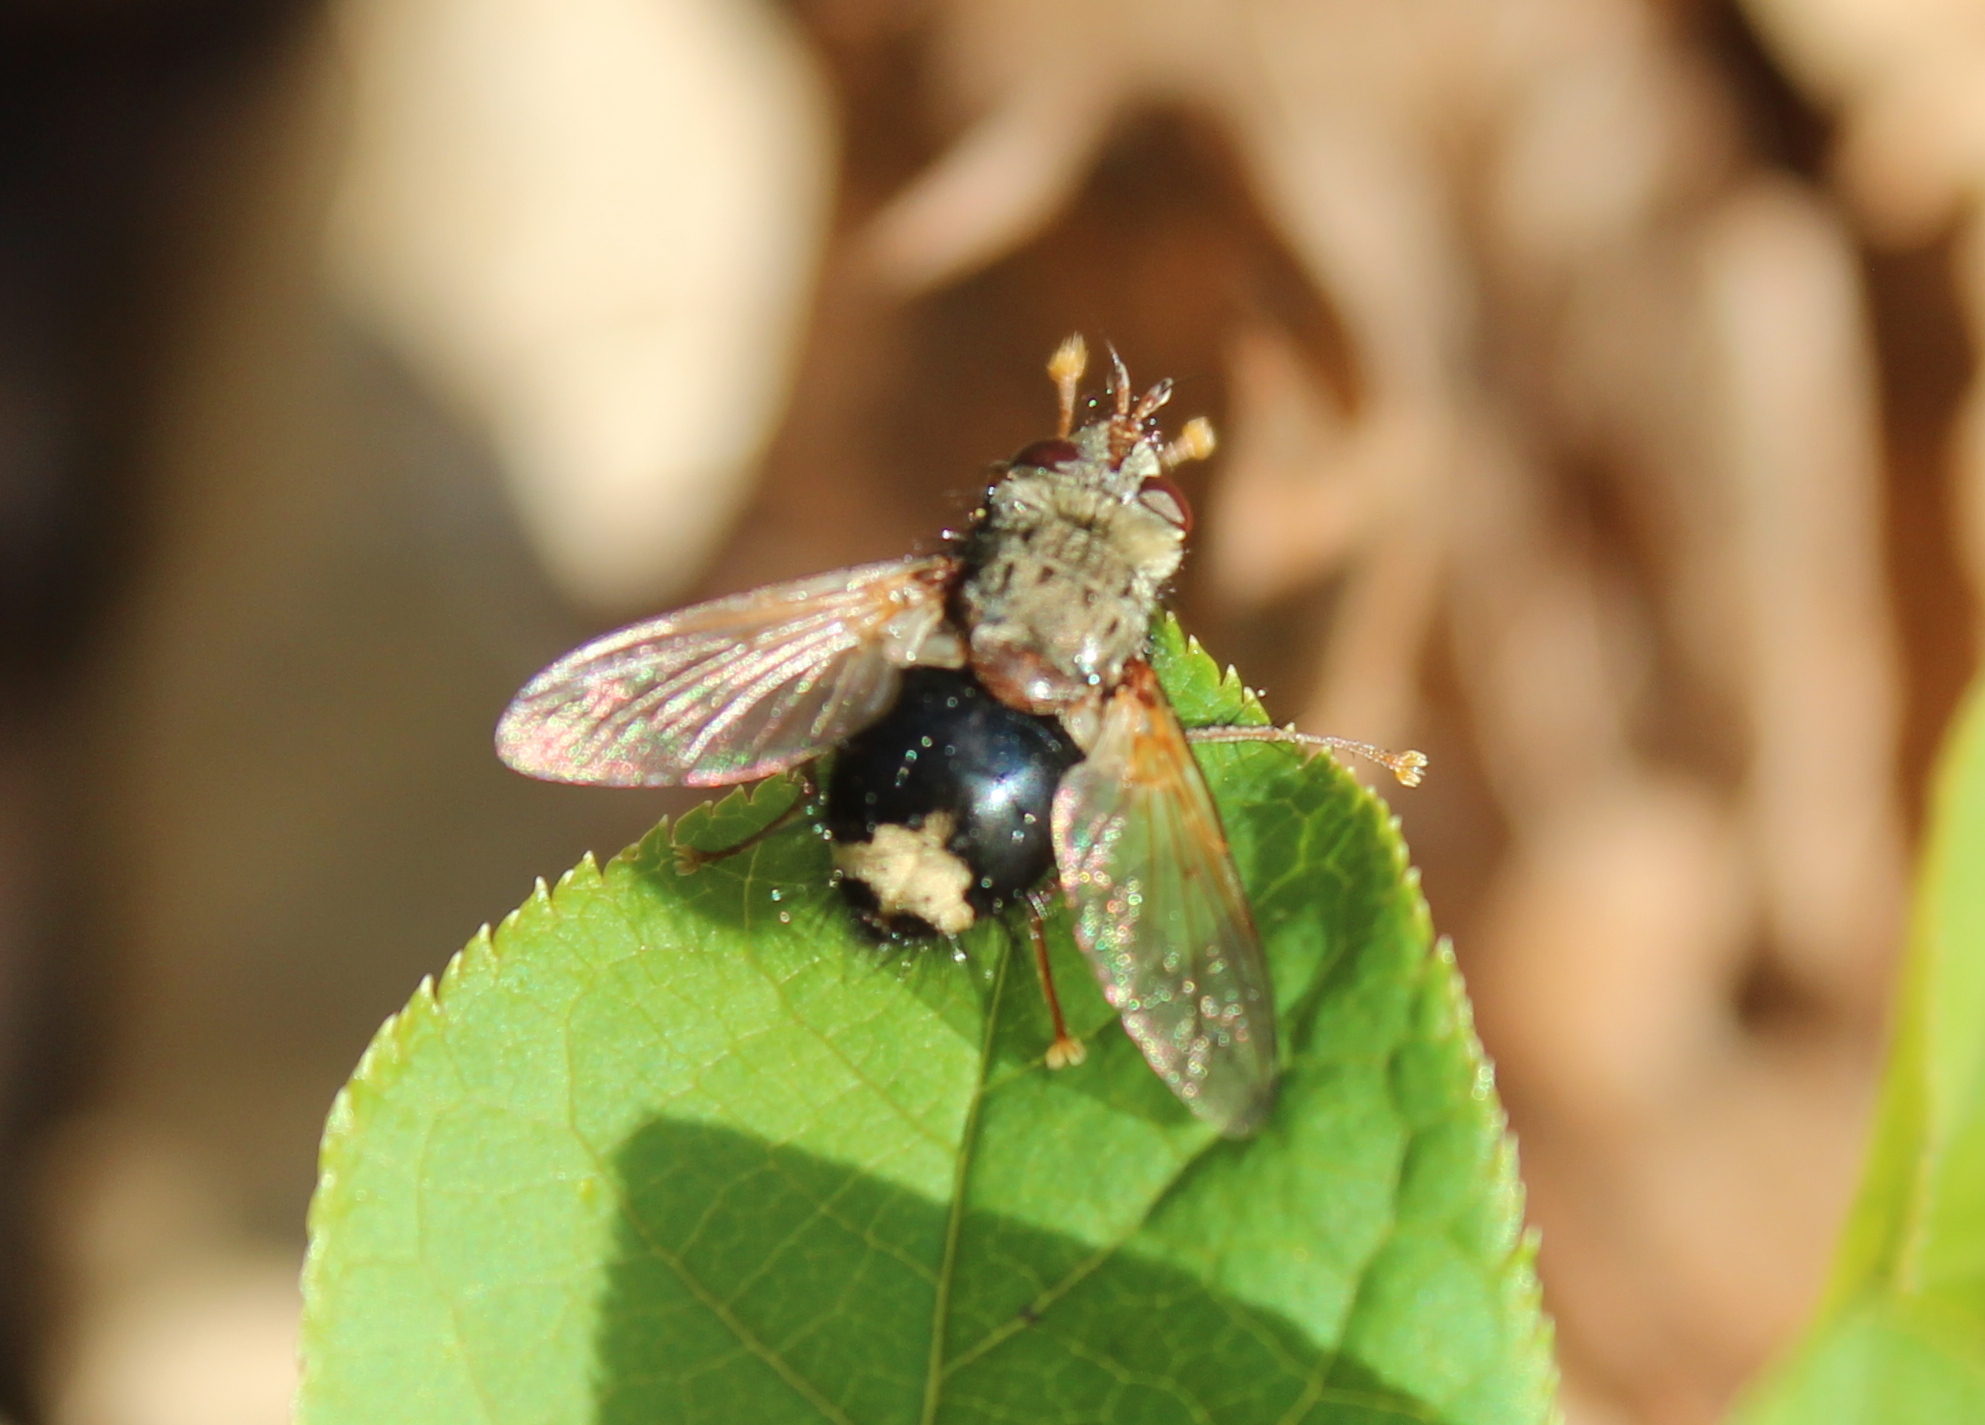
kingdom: Animalia
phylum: Arthropoda
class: Insecta
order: Diptera
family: Tachinidae
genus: Epalpus
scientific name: Epalpus signifer
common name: Early tachinid fly
